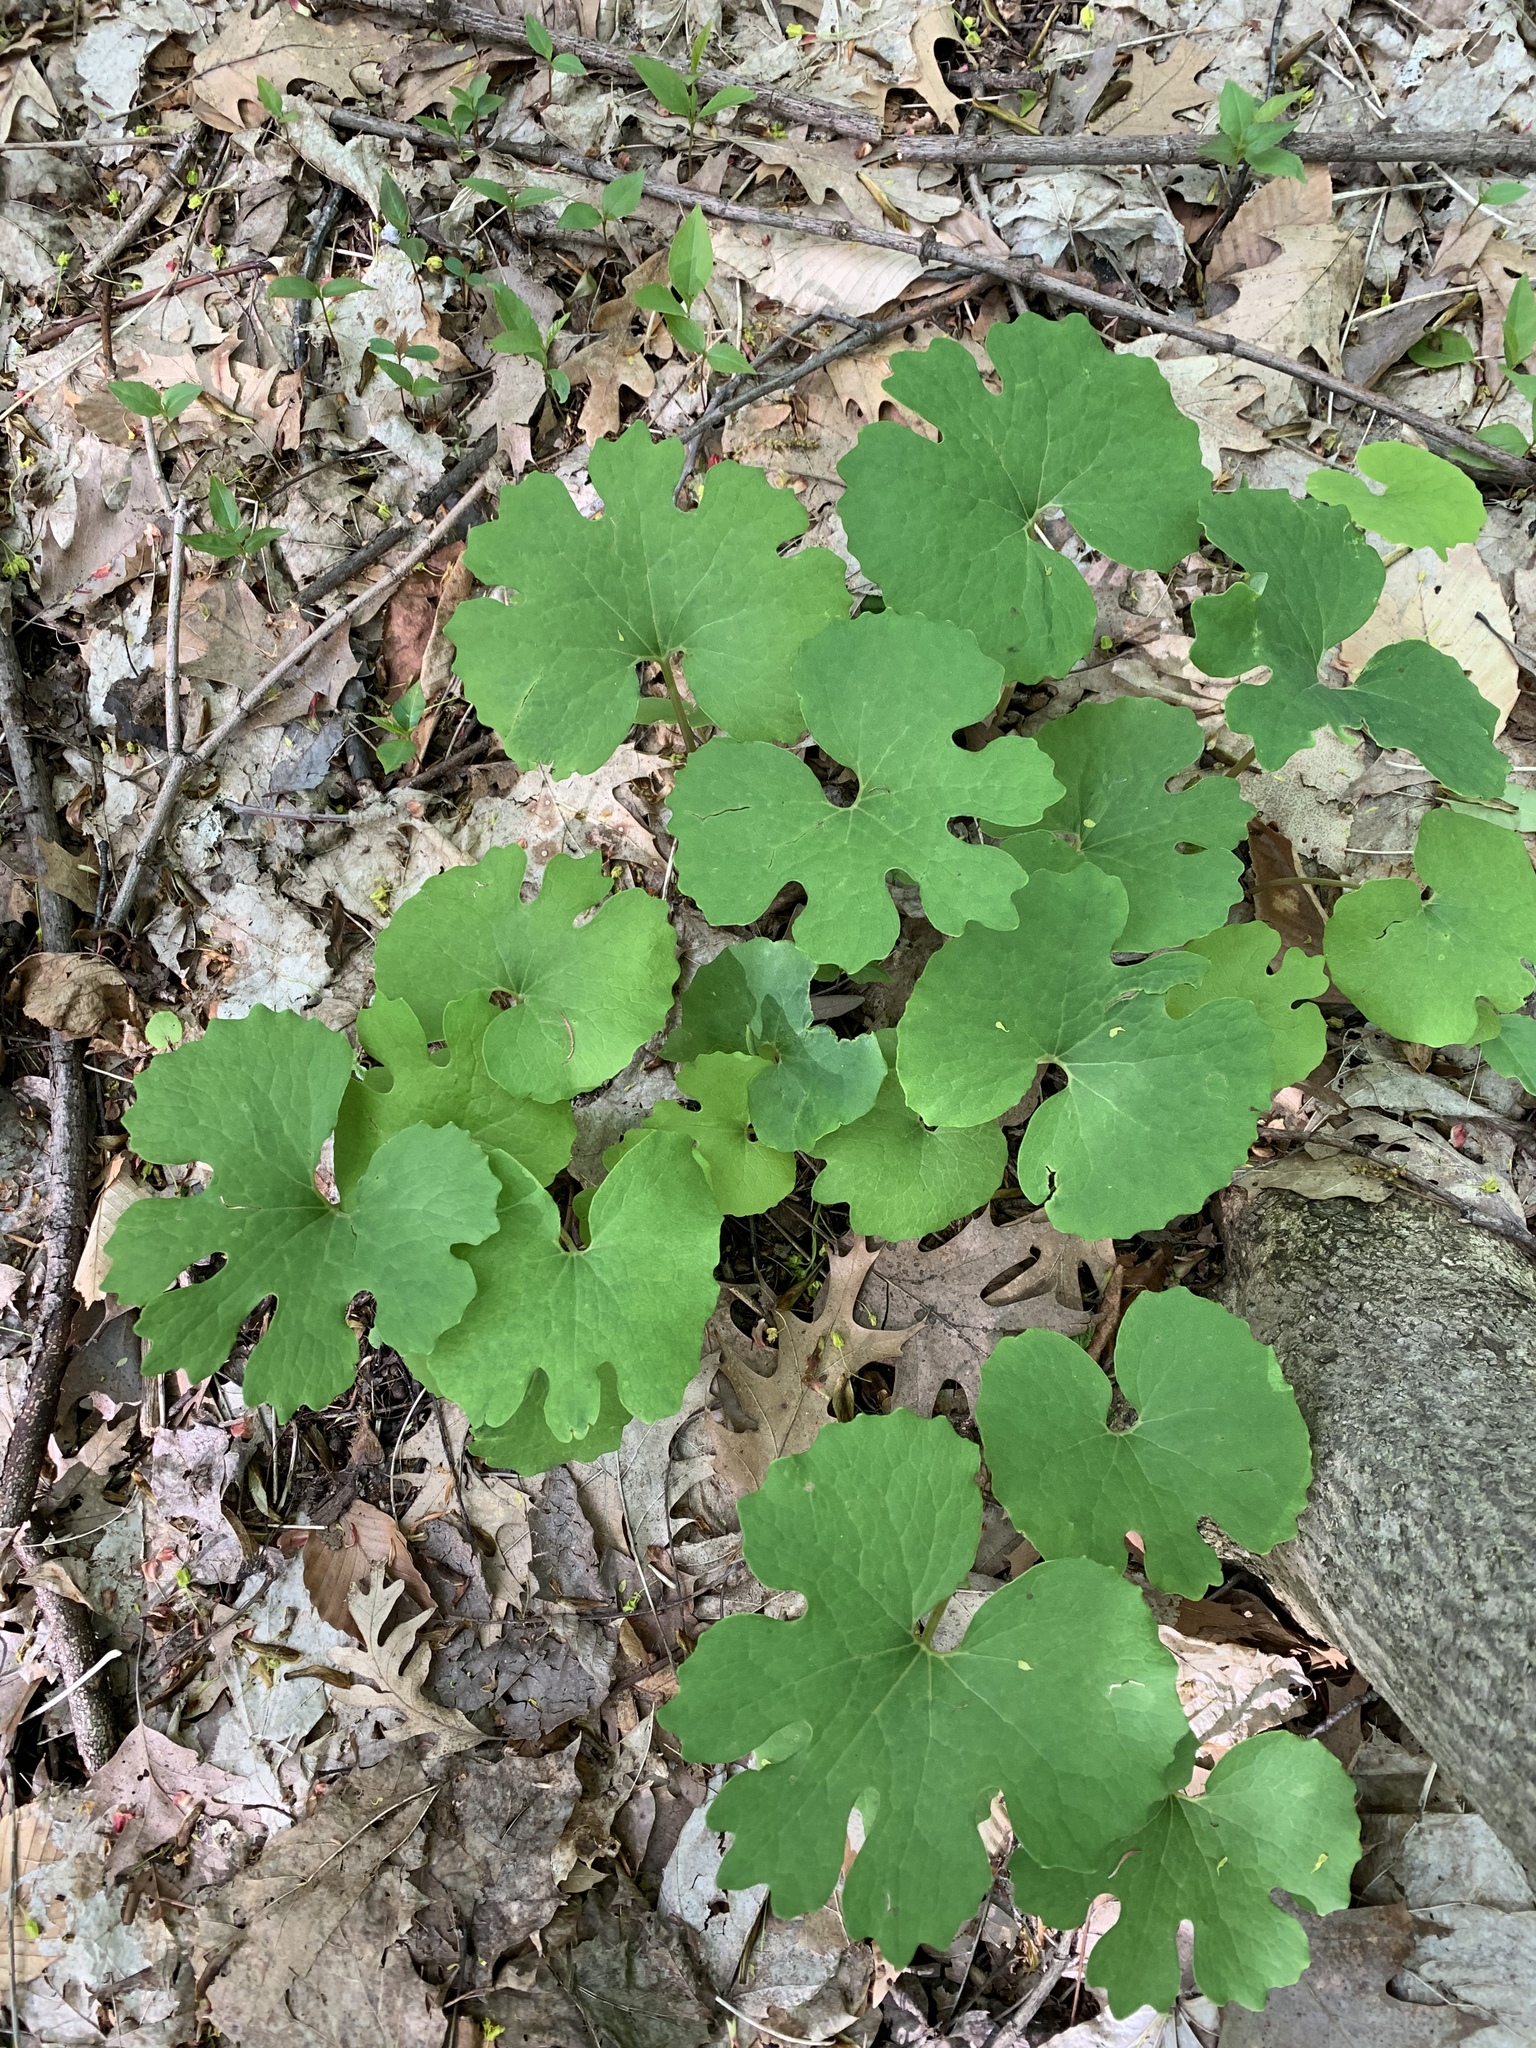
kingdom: Plantae
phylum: Tracheophyta
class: Magnoliopsida
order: Ranunculales
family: Papaveraceae
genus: Sanguinaria
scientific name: Sanguinaria canadensis
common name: Bloodroot
